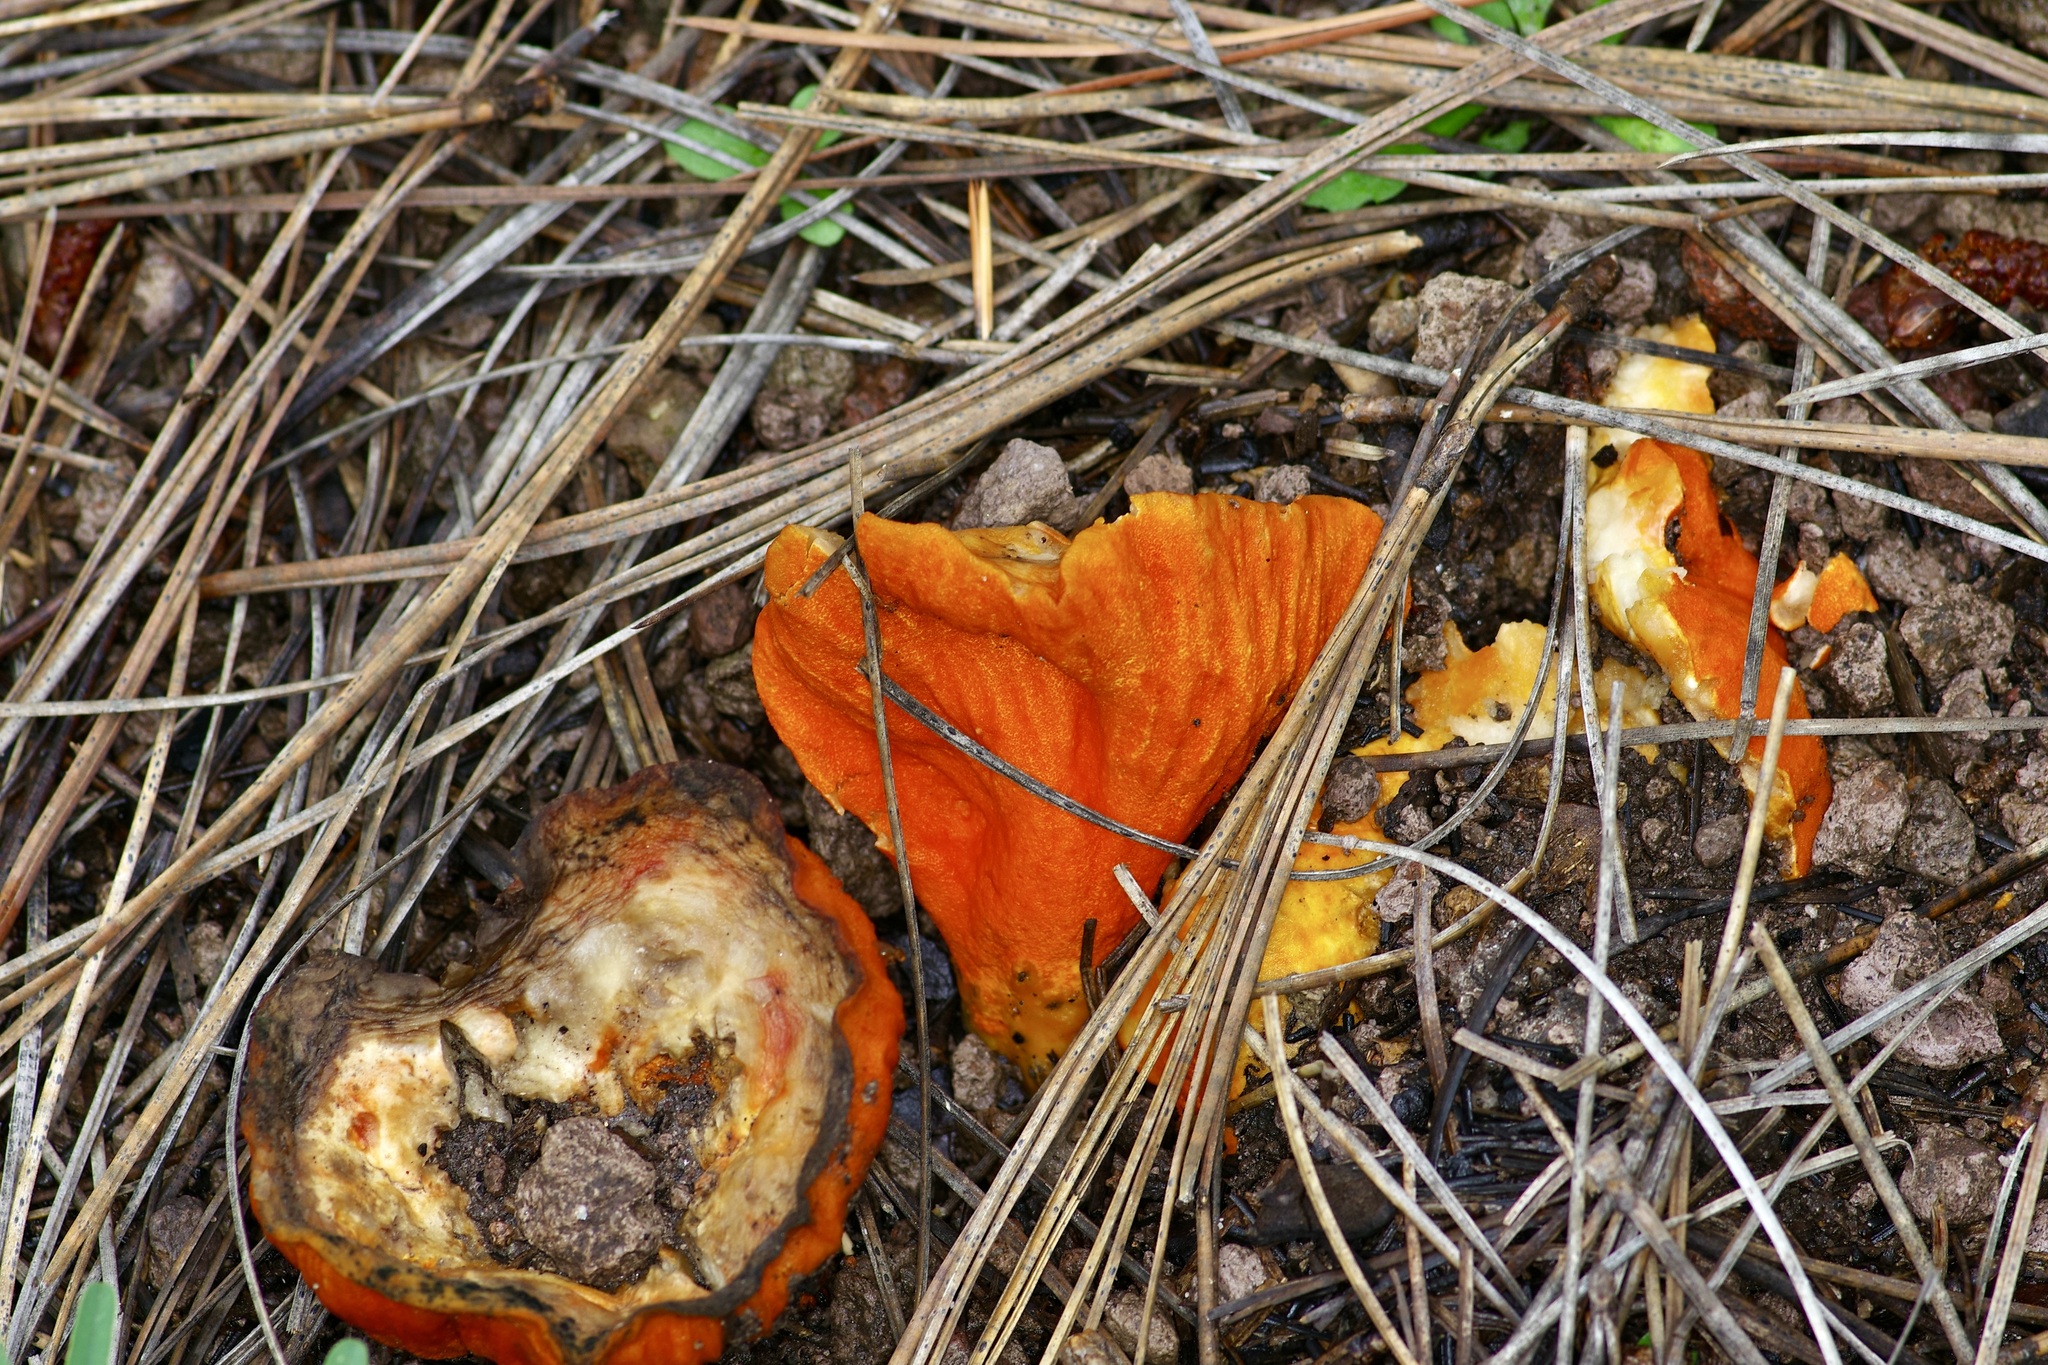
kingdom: Fungi
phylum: Ascomycota
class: Sordariomycetes
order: Hypocreales
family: Hypocreaceae
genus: Hypomyces
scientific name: Hypomyces lactifluorum
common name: Lobster mushroom
